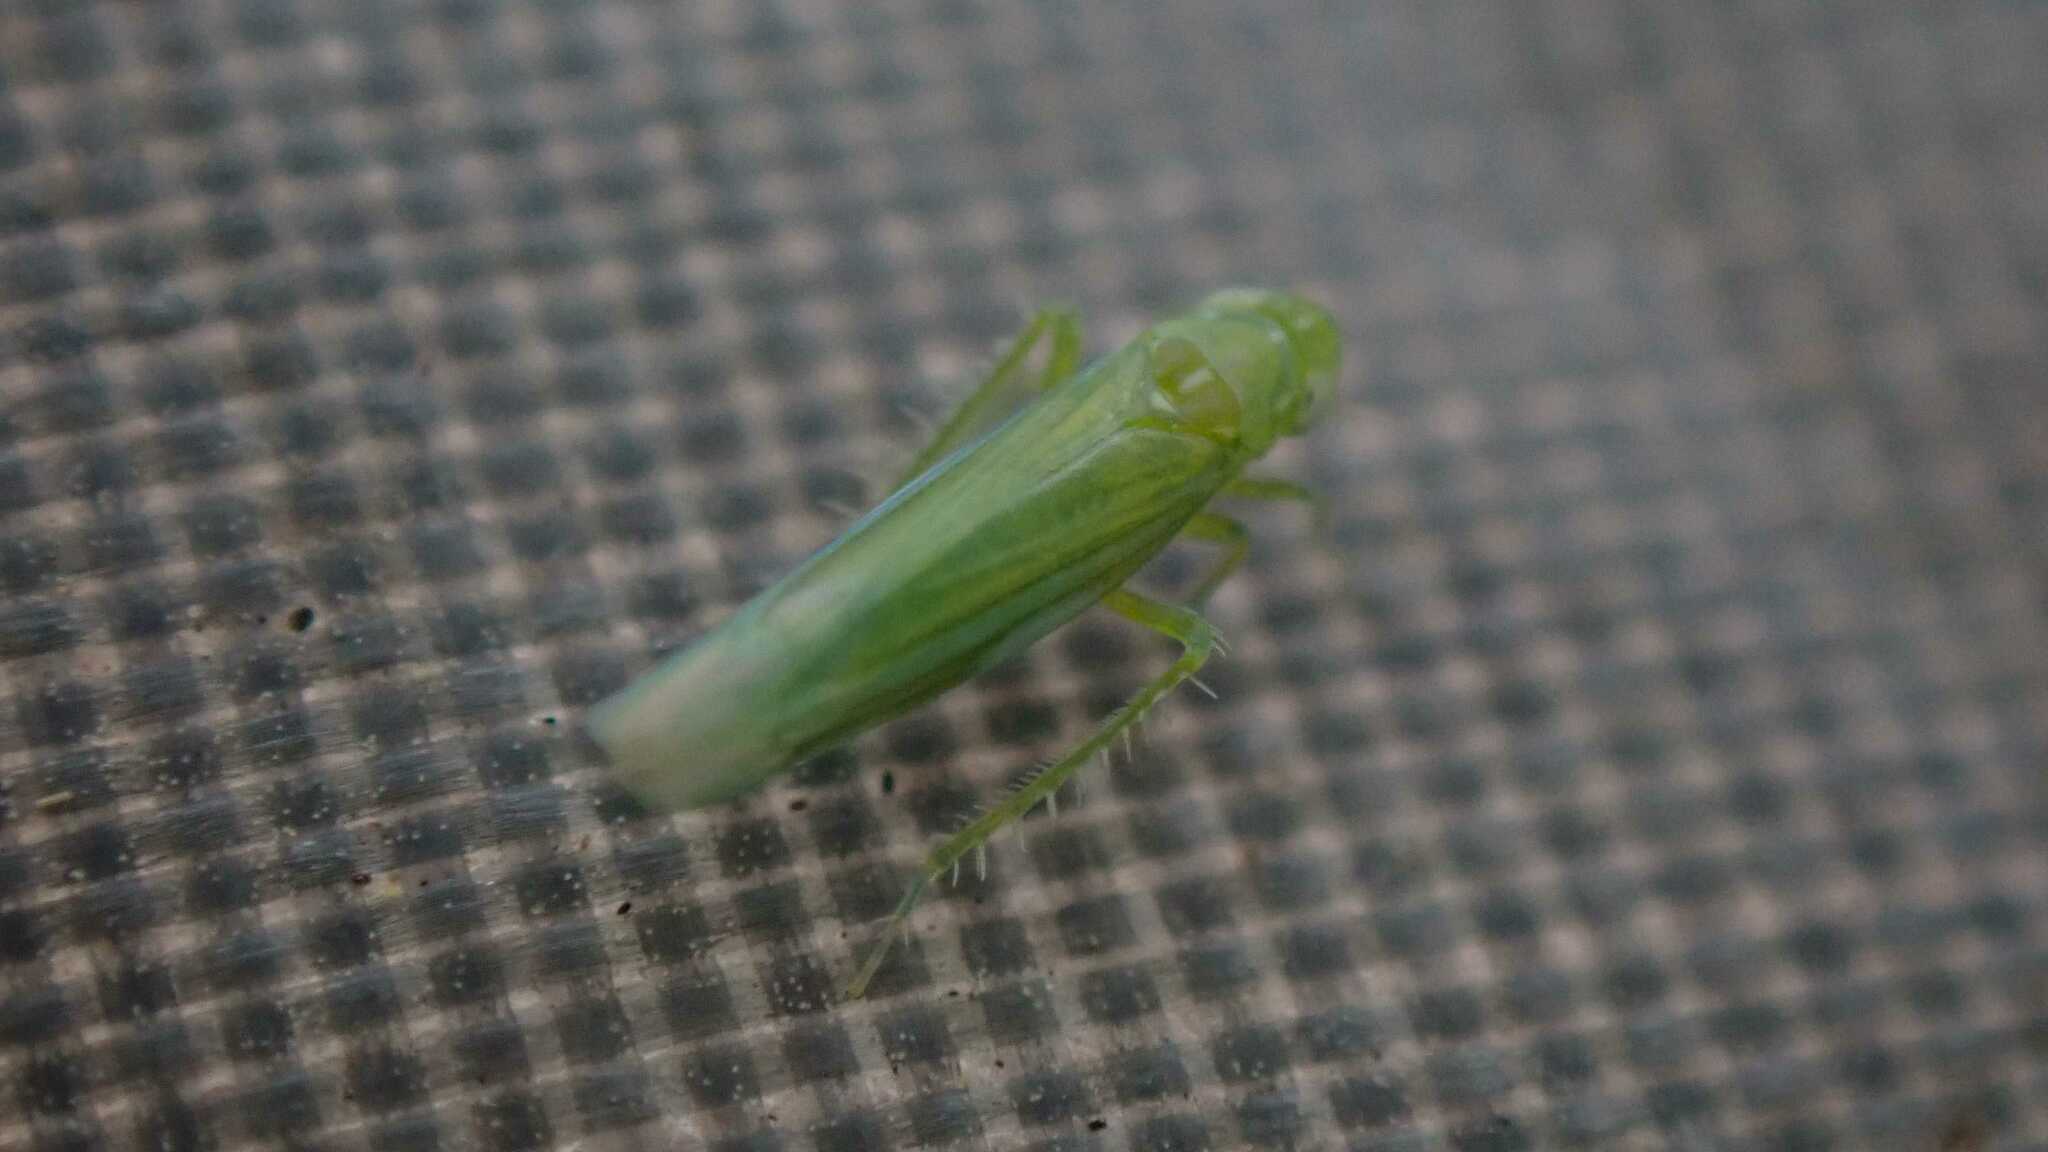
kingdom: Animalia
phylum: Arthropoda
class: Insecta
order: Hemiptera
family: Cicadellidae
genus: Hebata
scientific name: Hebata vitis
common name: The smaller green leafhopper
